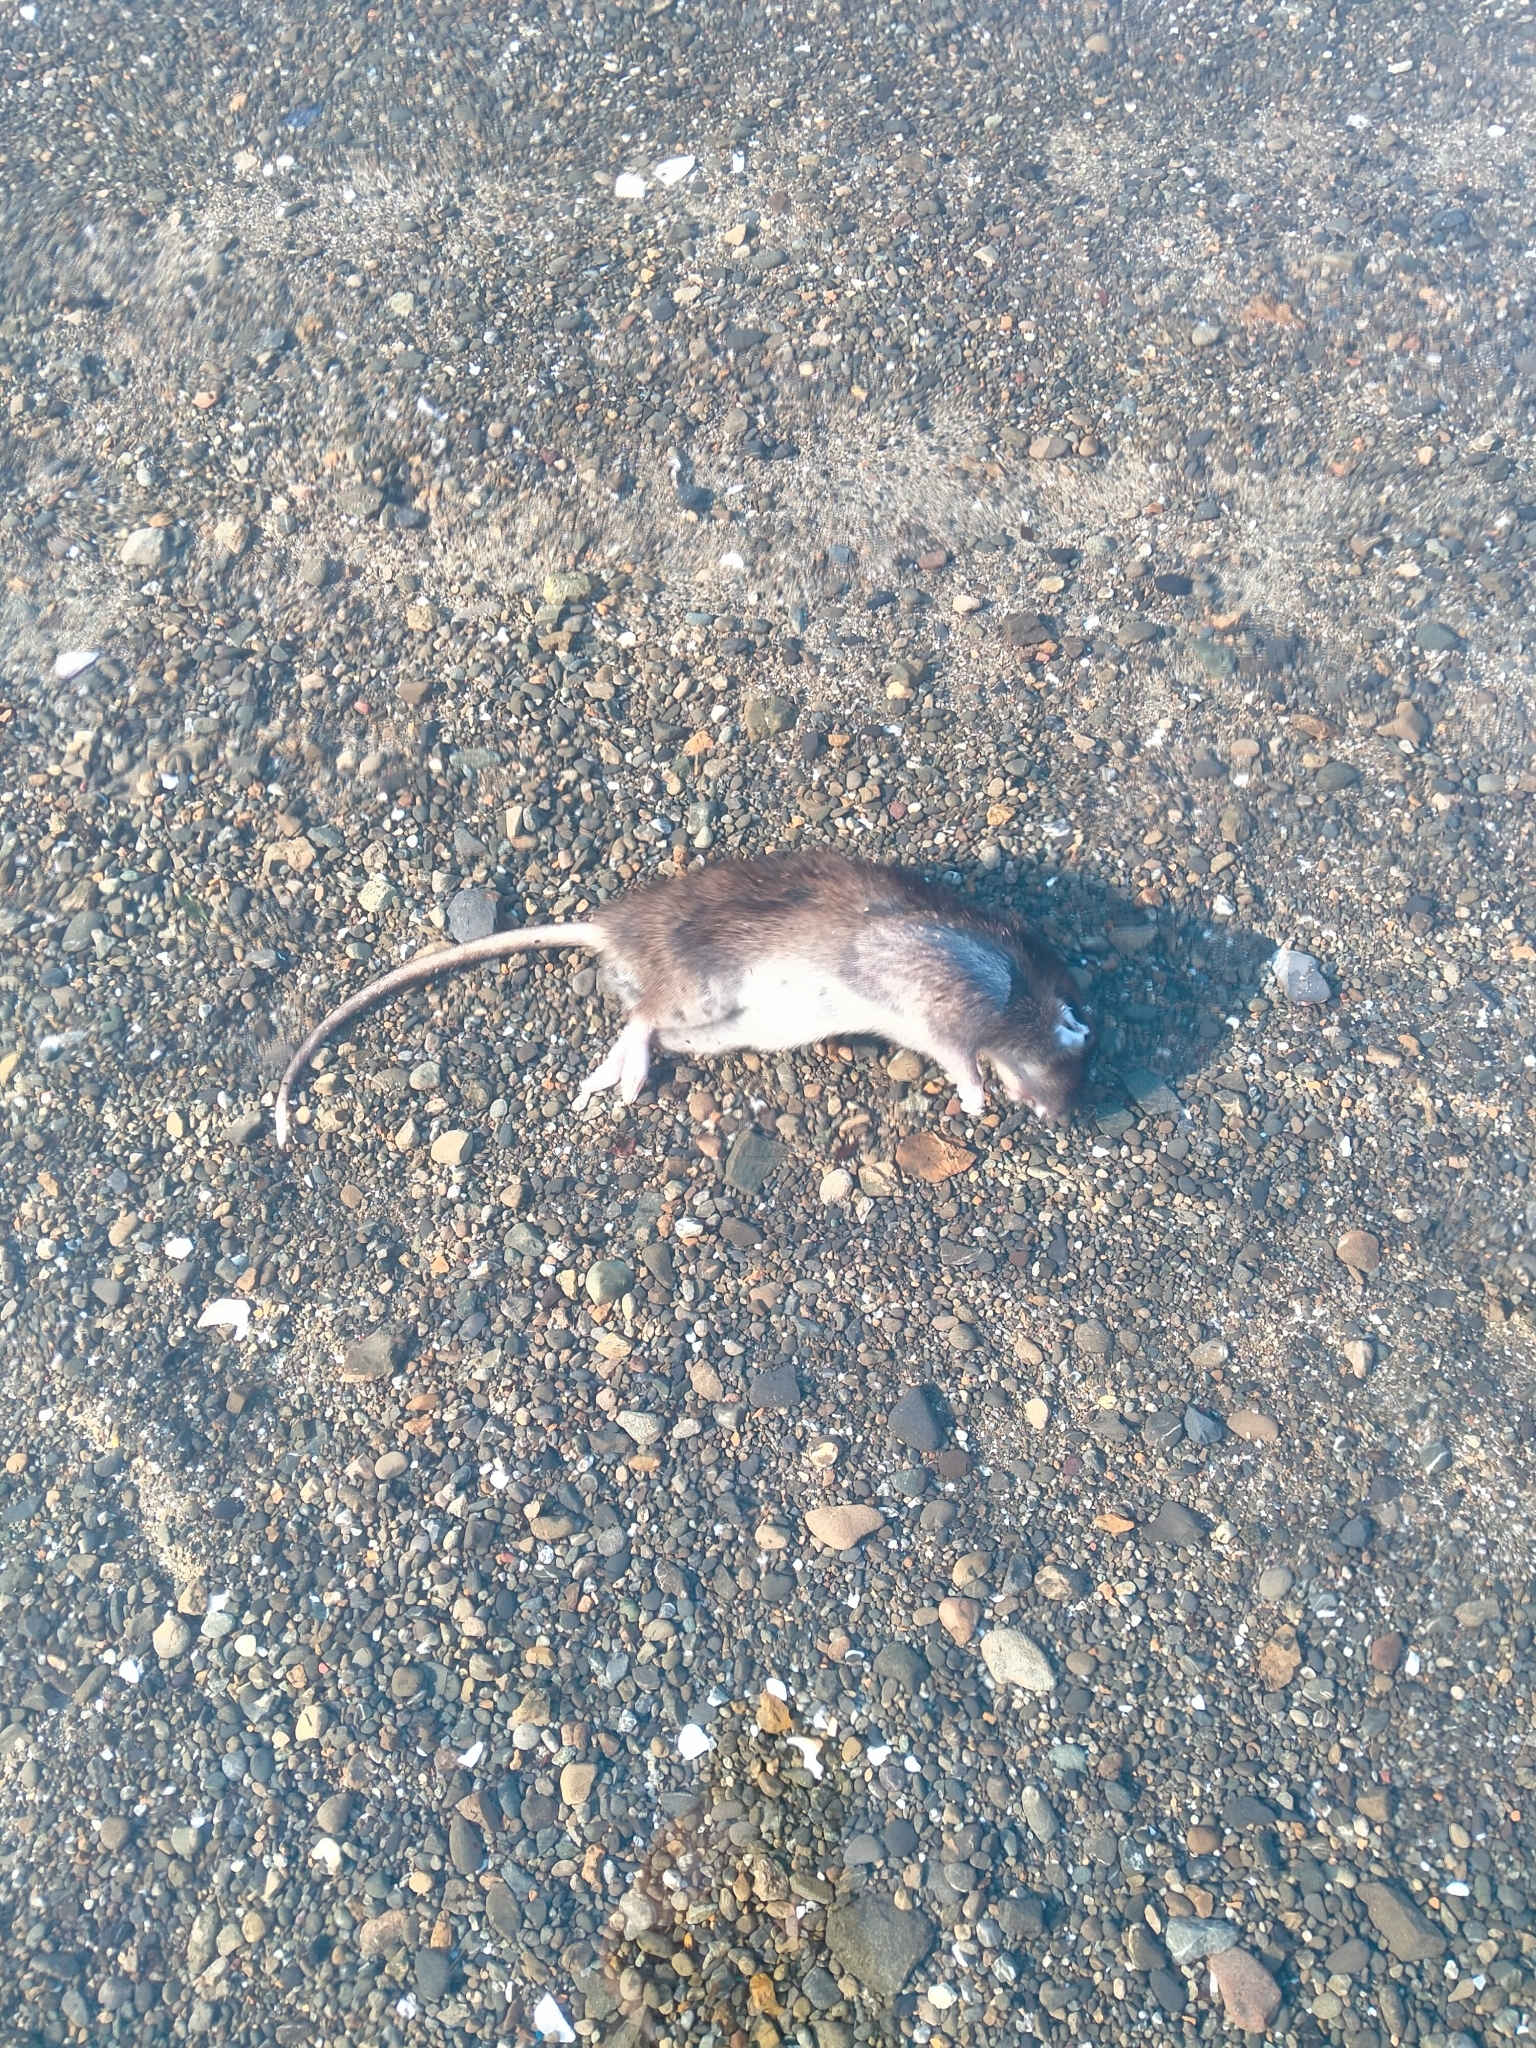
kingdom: Animalia
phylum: Chordata
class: Mammalia
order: Rodentia
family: Muridae
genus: Rattus
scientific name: Rattus norvegicus
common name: Brown rat
